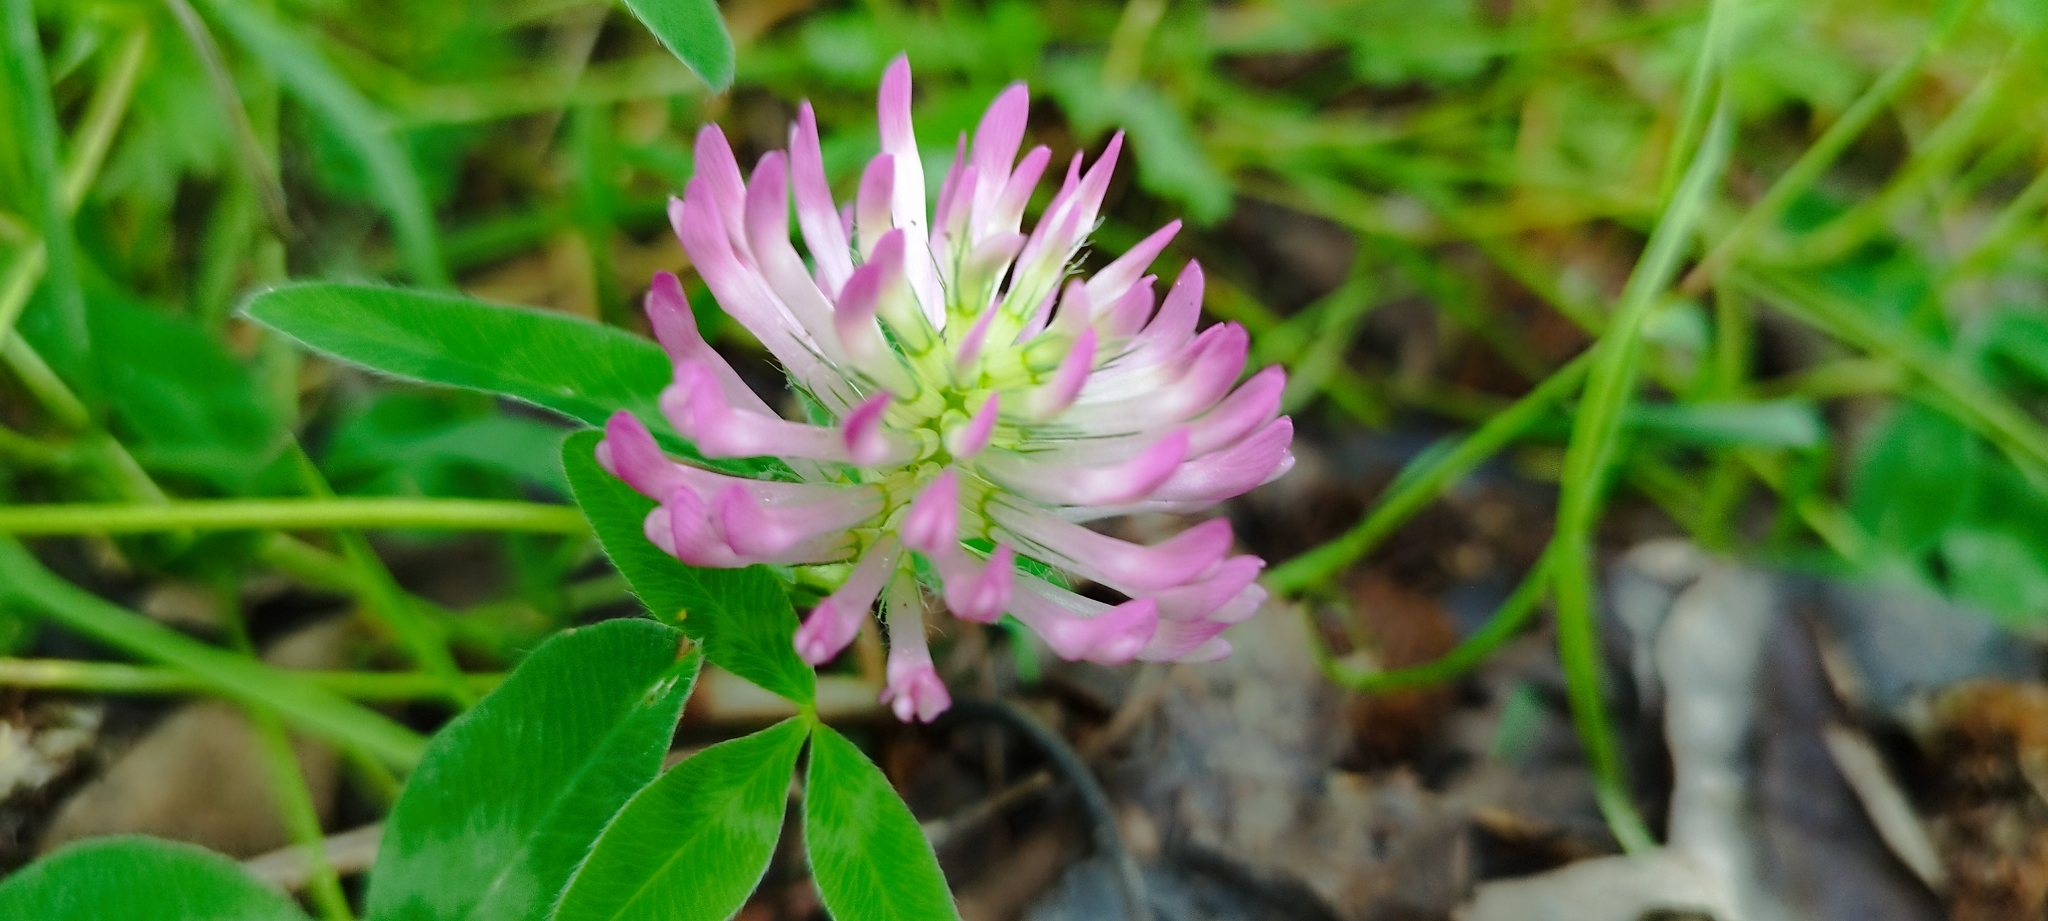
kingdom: Plantae
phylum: Tracheophyta
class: Magnoliopsida
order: Fabales
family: Fabaceae
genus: Trifolium
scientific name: Trifolium medium
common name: Zigzag clover
